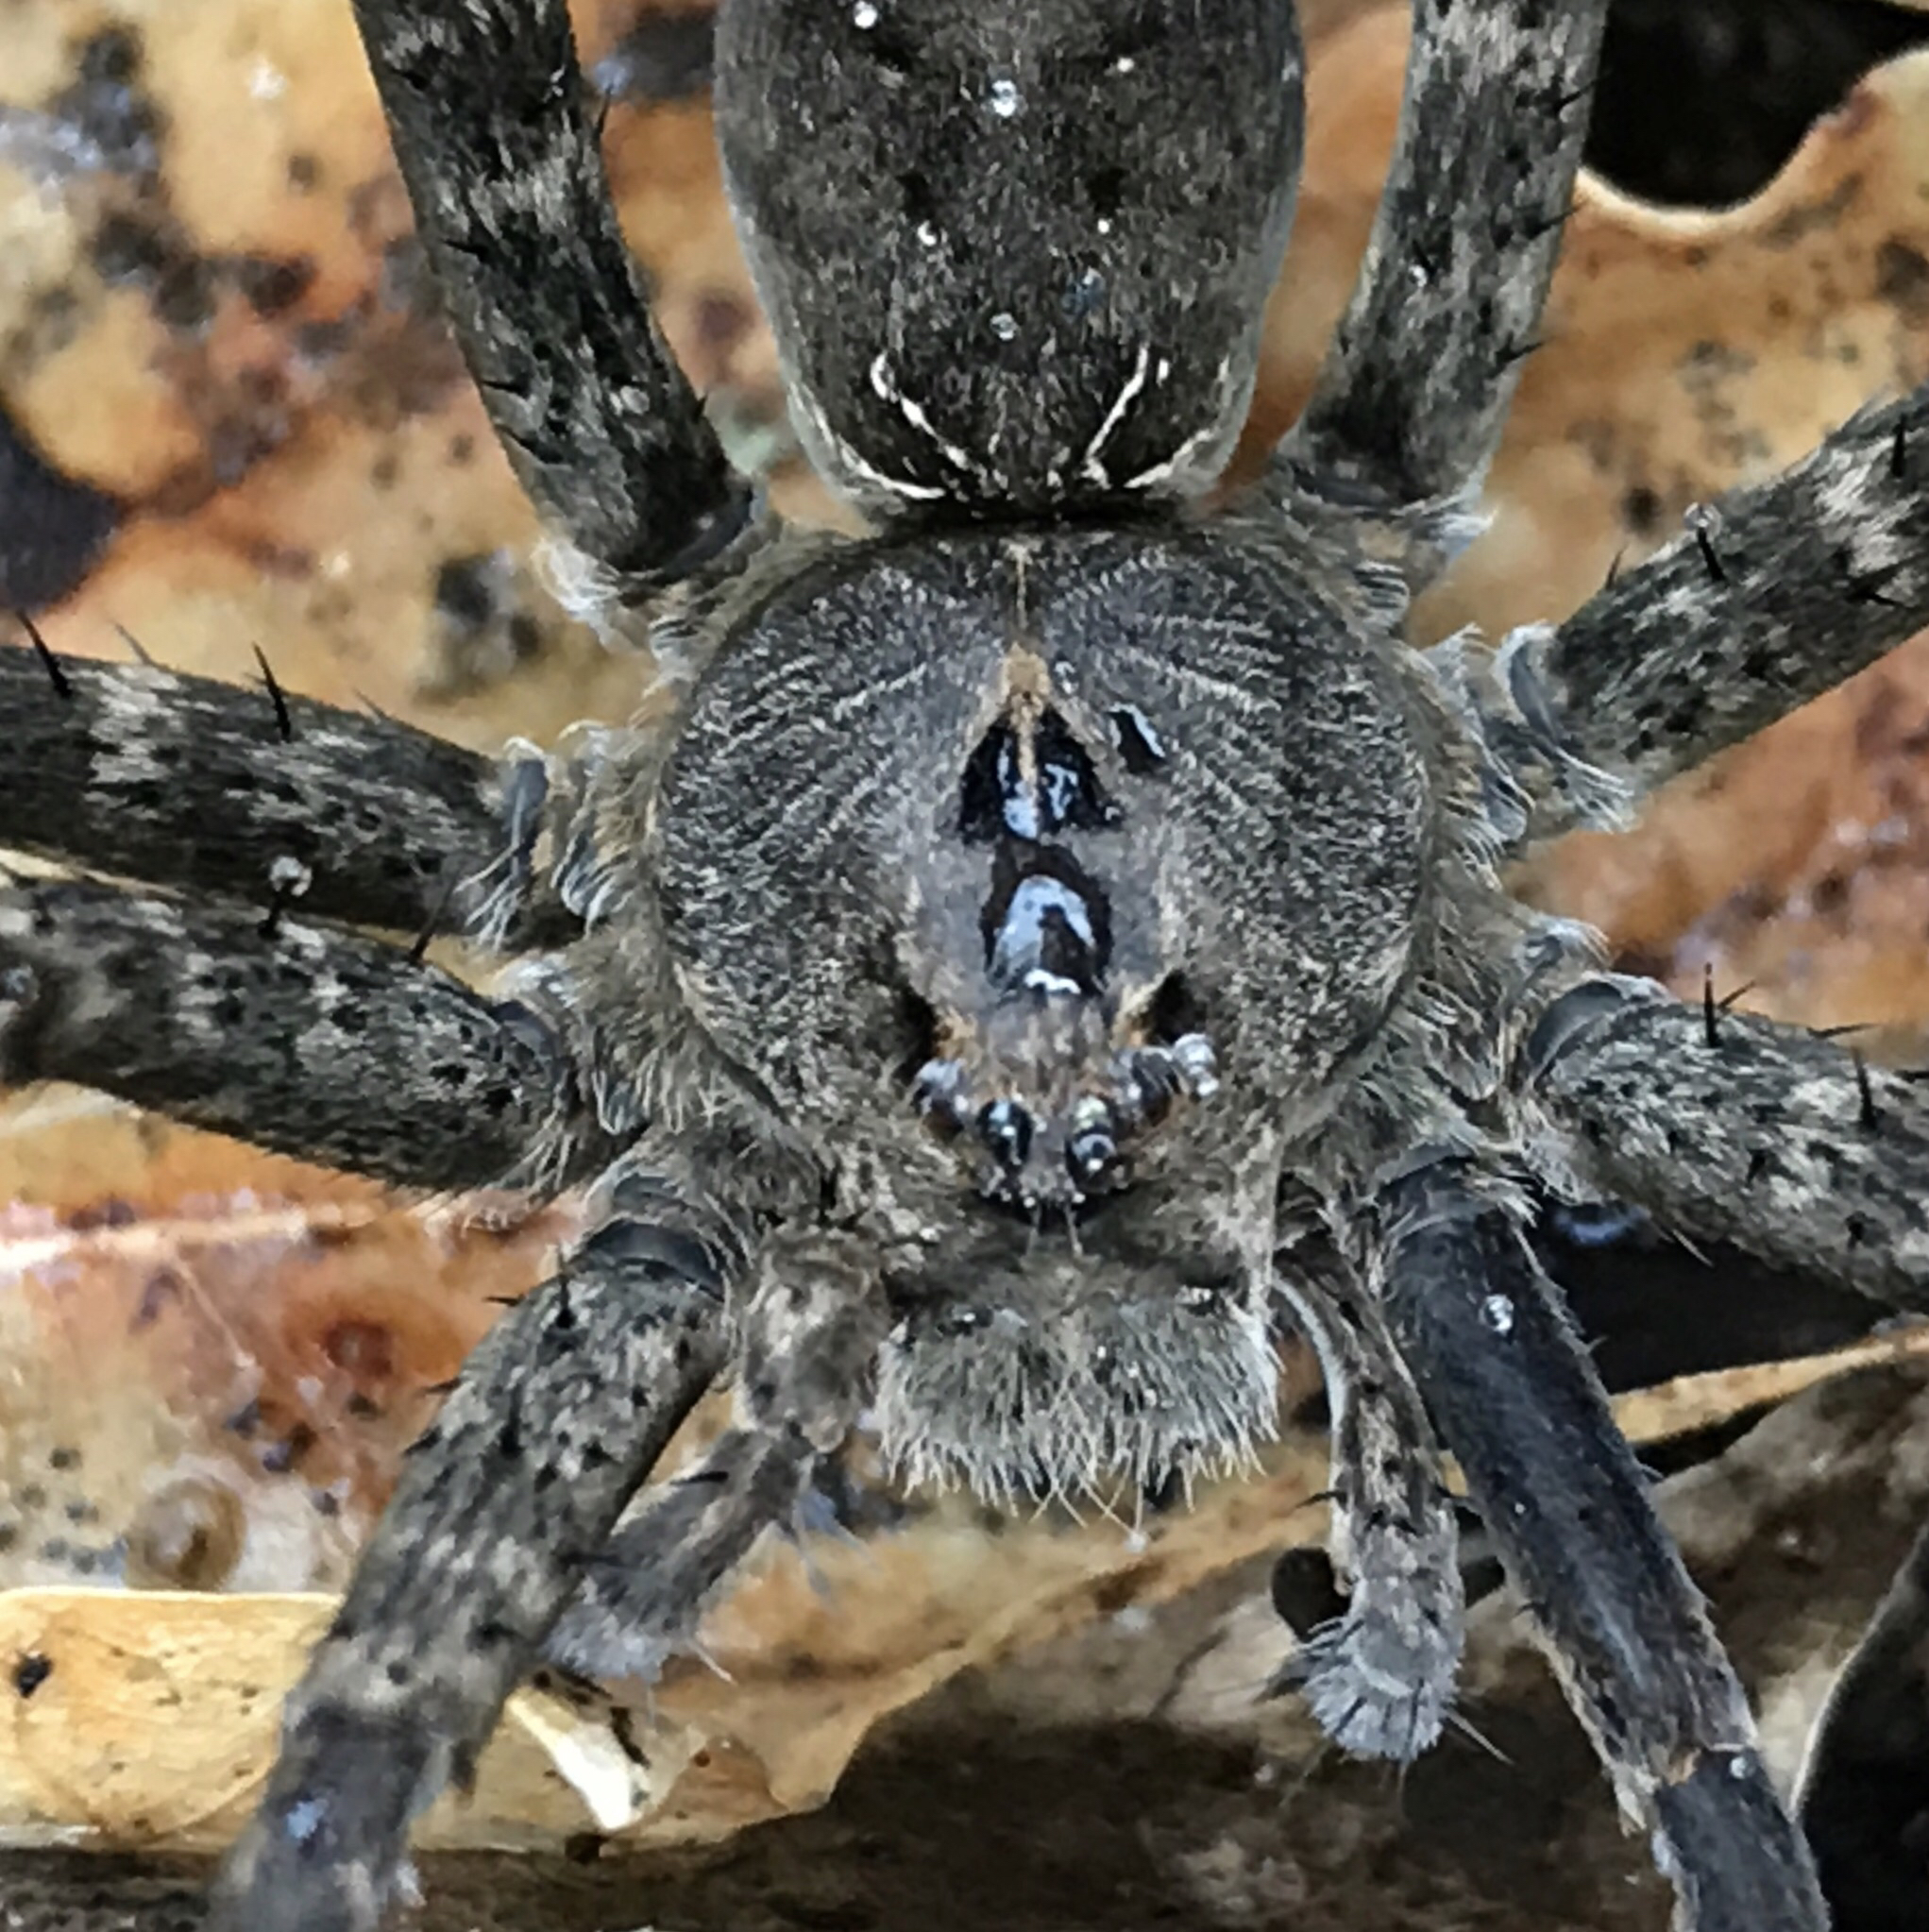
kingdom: Animalia
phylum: Arthropoda
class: Arachnida
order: Araneae
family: Pisauridae
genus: Dolomedes
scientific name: Dolomedes vittatus
